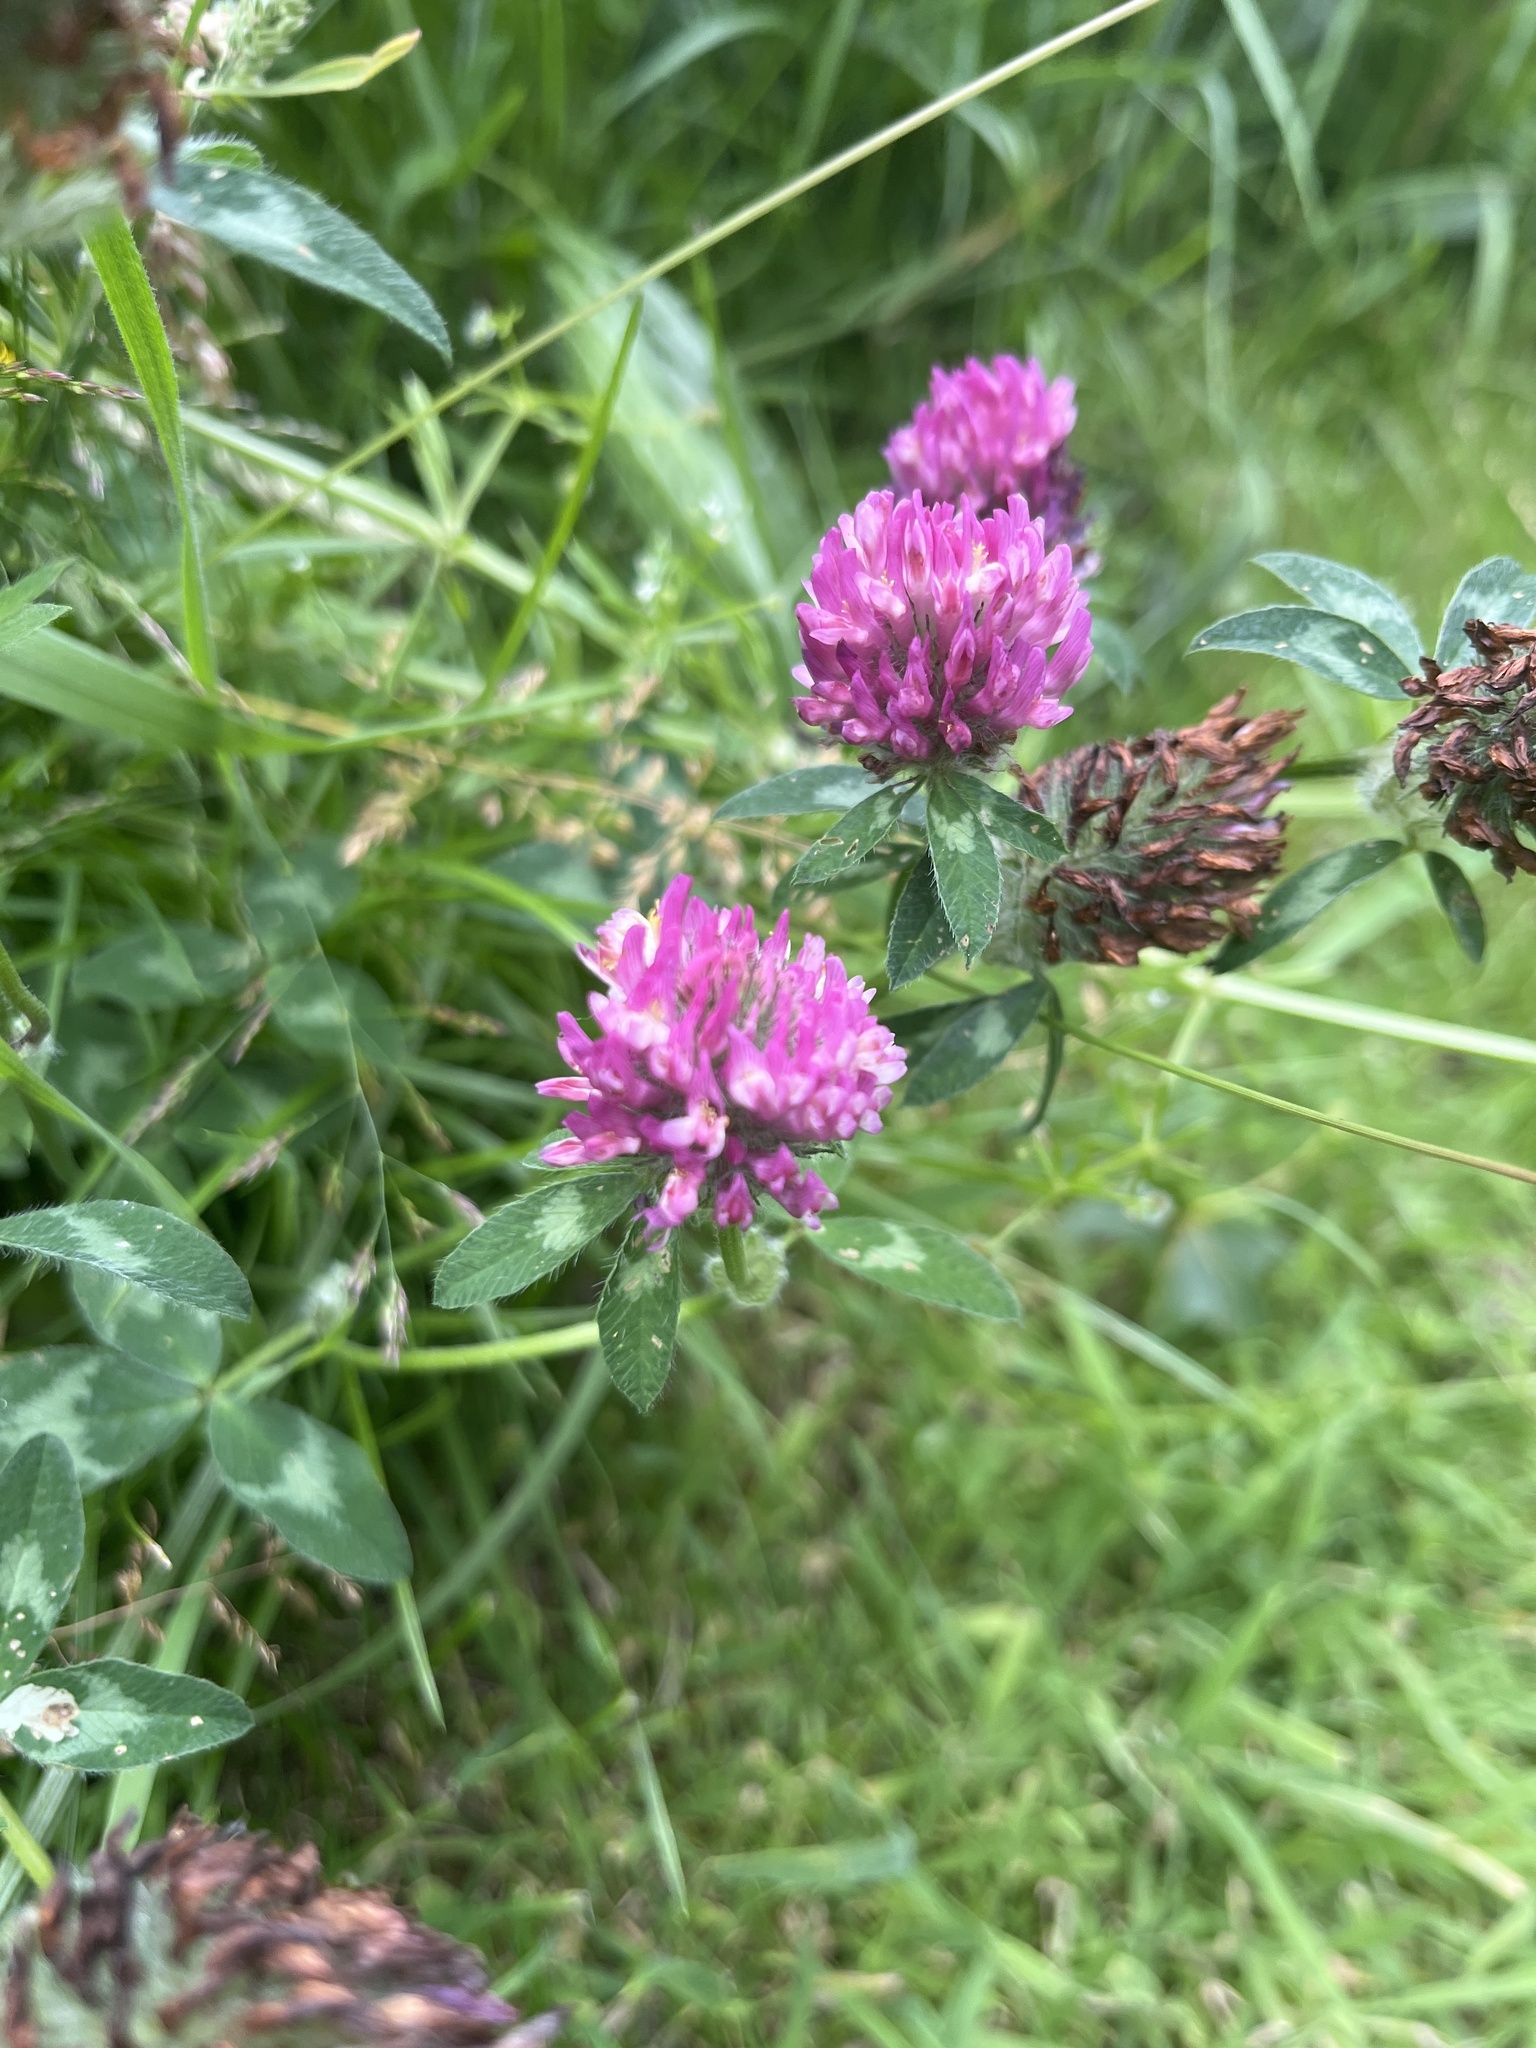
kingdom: Plantae
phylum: Tracheophyta
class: Magnoliopsida
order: Fabales
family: Fabaceae
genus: Trifolium
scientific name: Trifolium pratense
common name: Red clover
